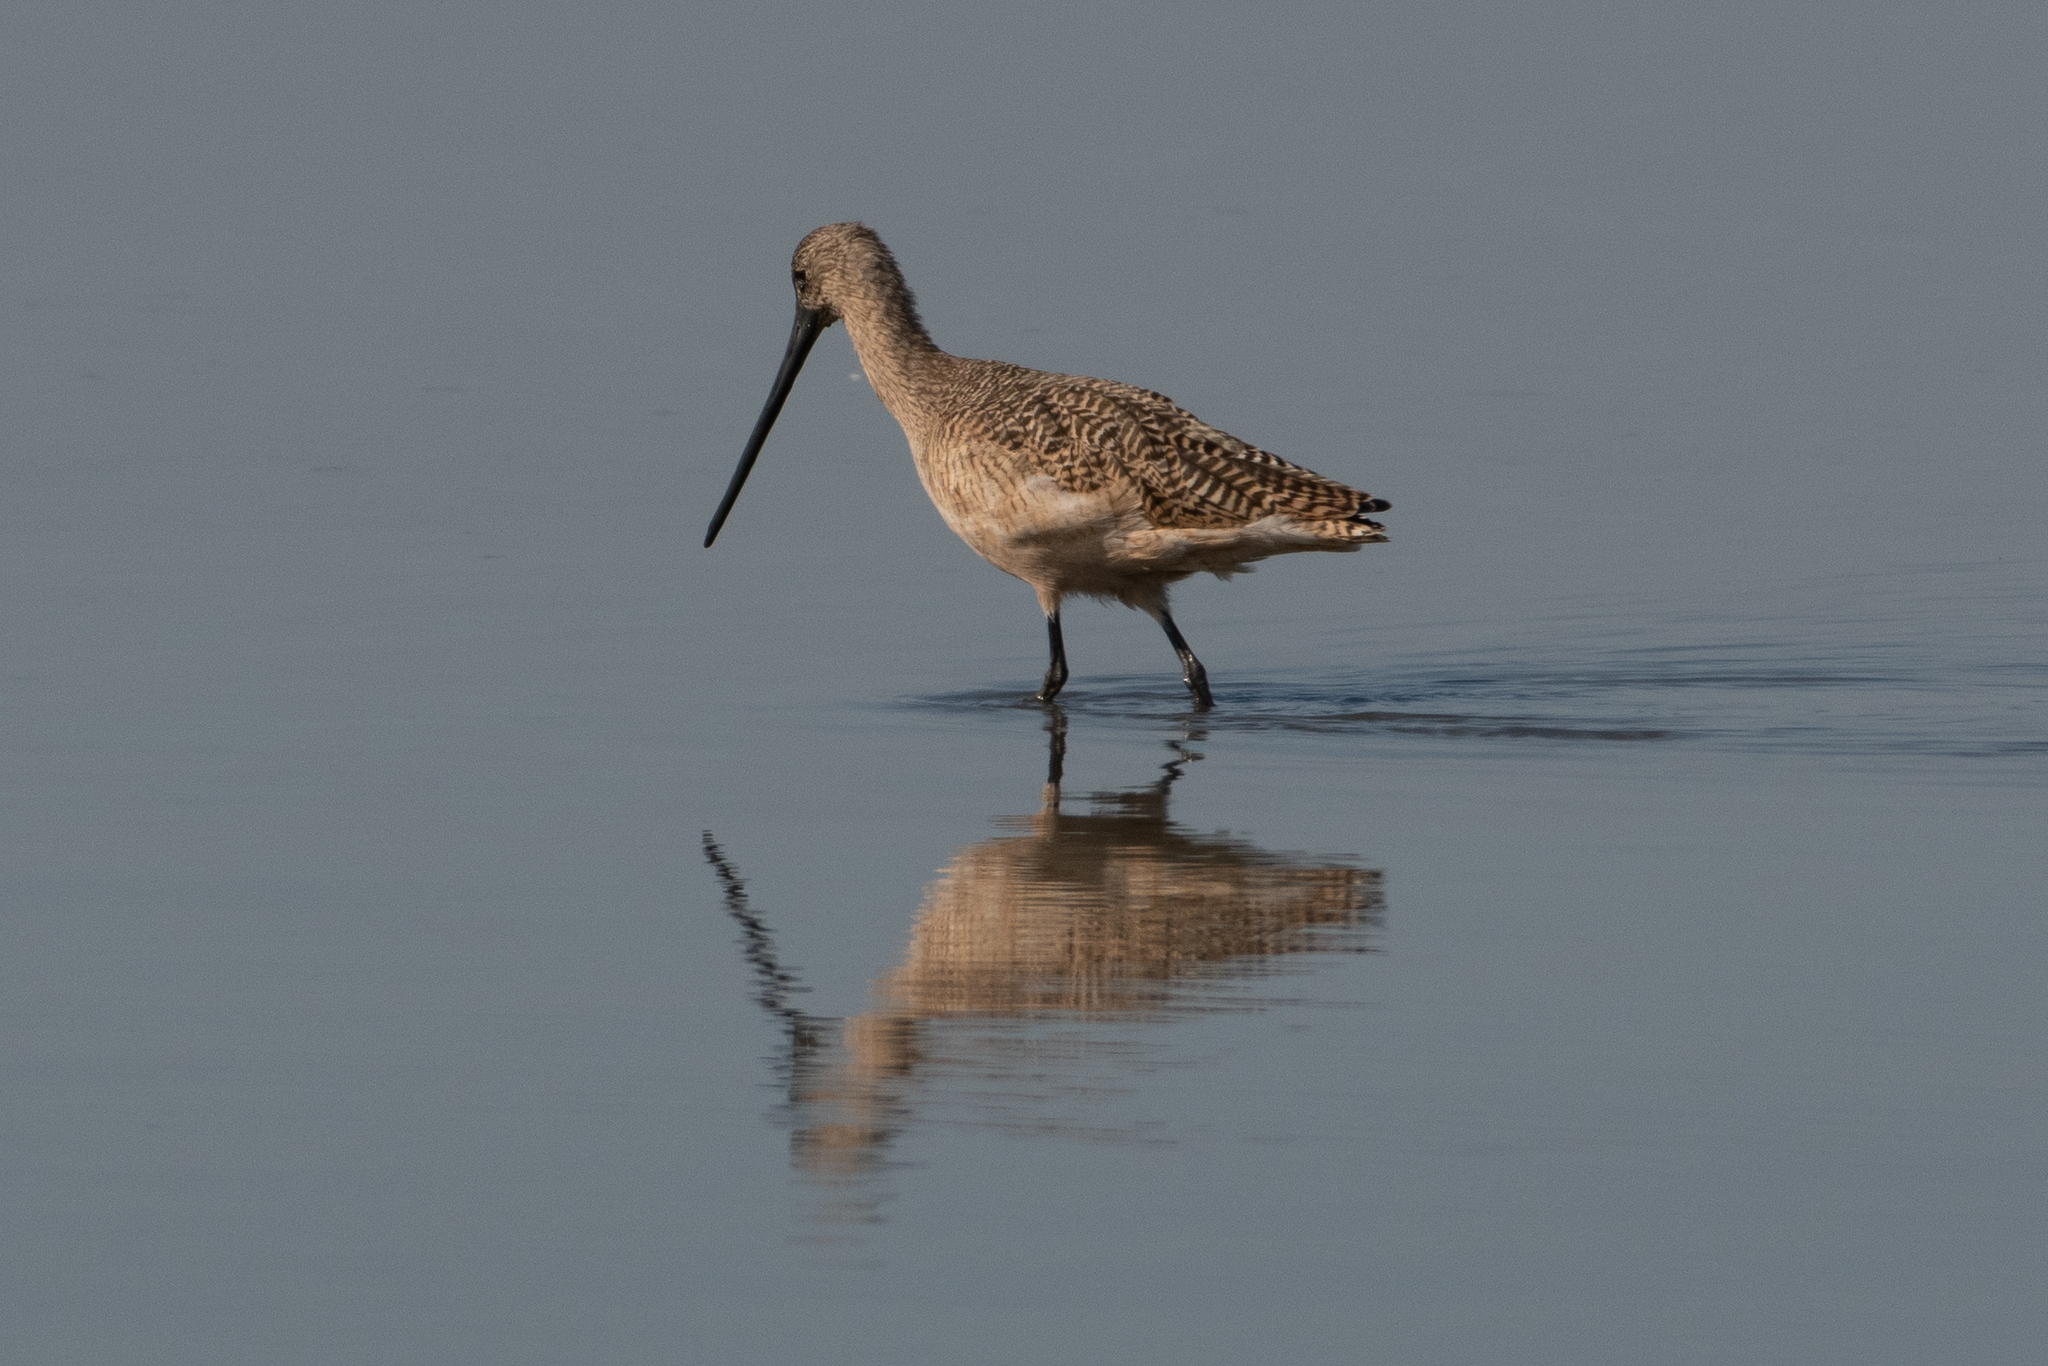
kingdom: Animalia
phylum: Chordata
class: Aves
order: Charadriiformes
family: Scolopacidae
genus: Limosa
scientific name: Limosa fedoa
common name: Marbled godwit
